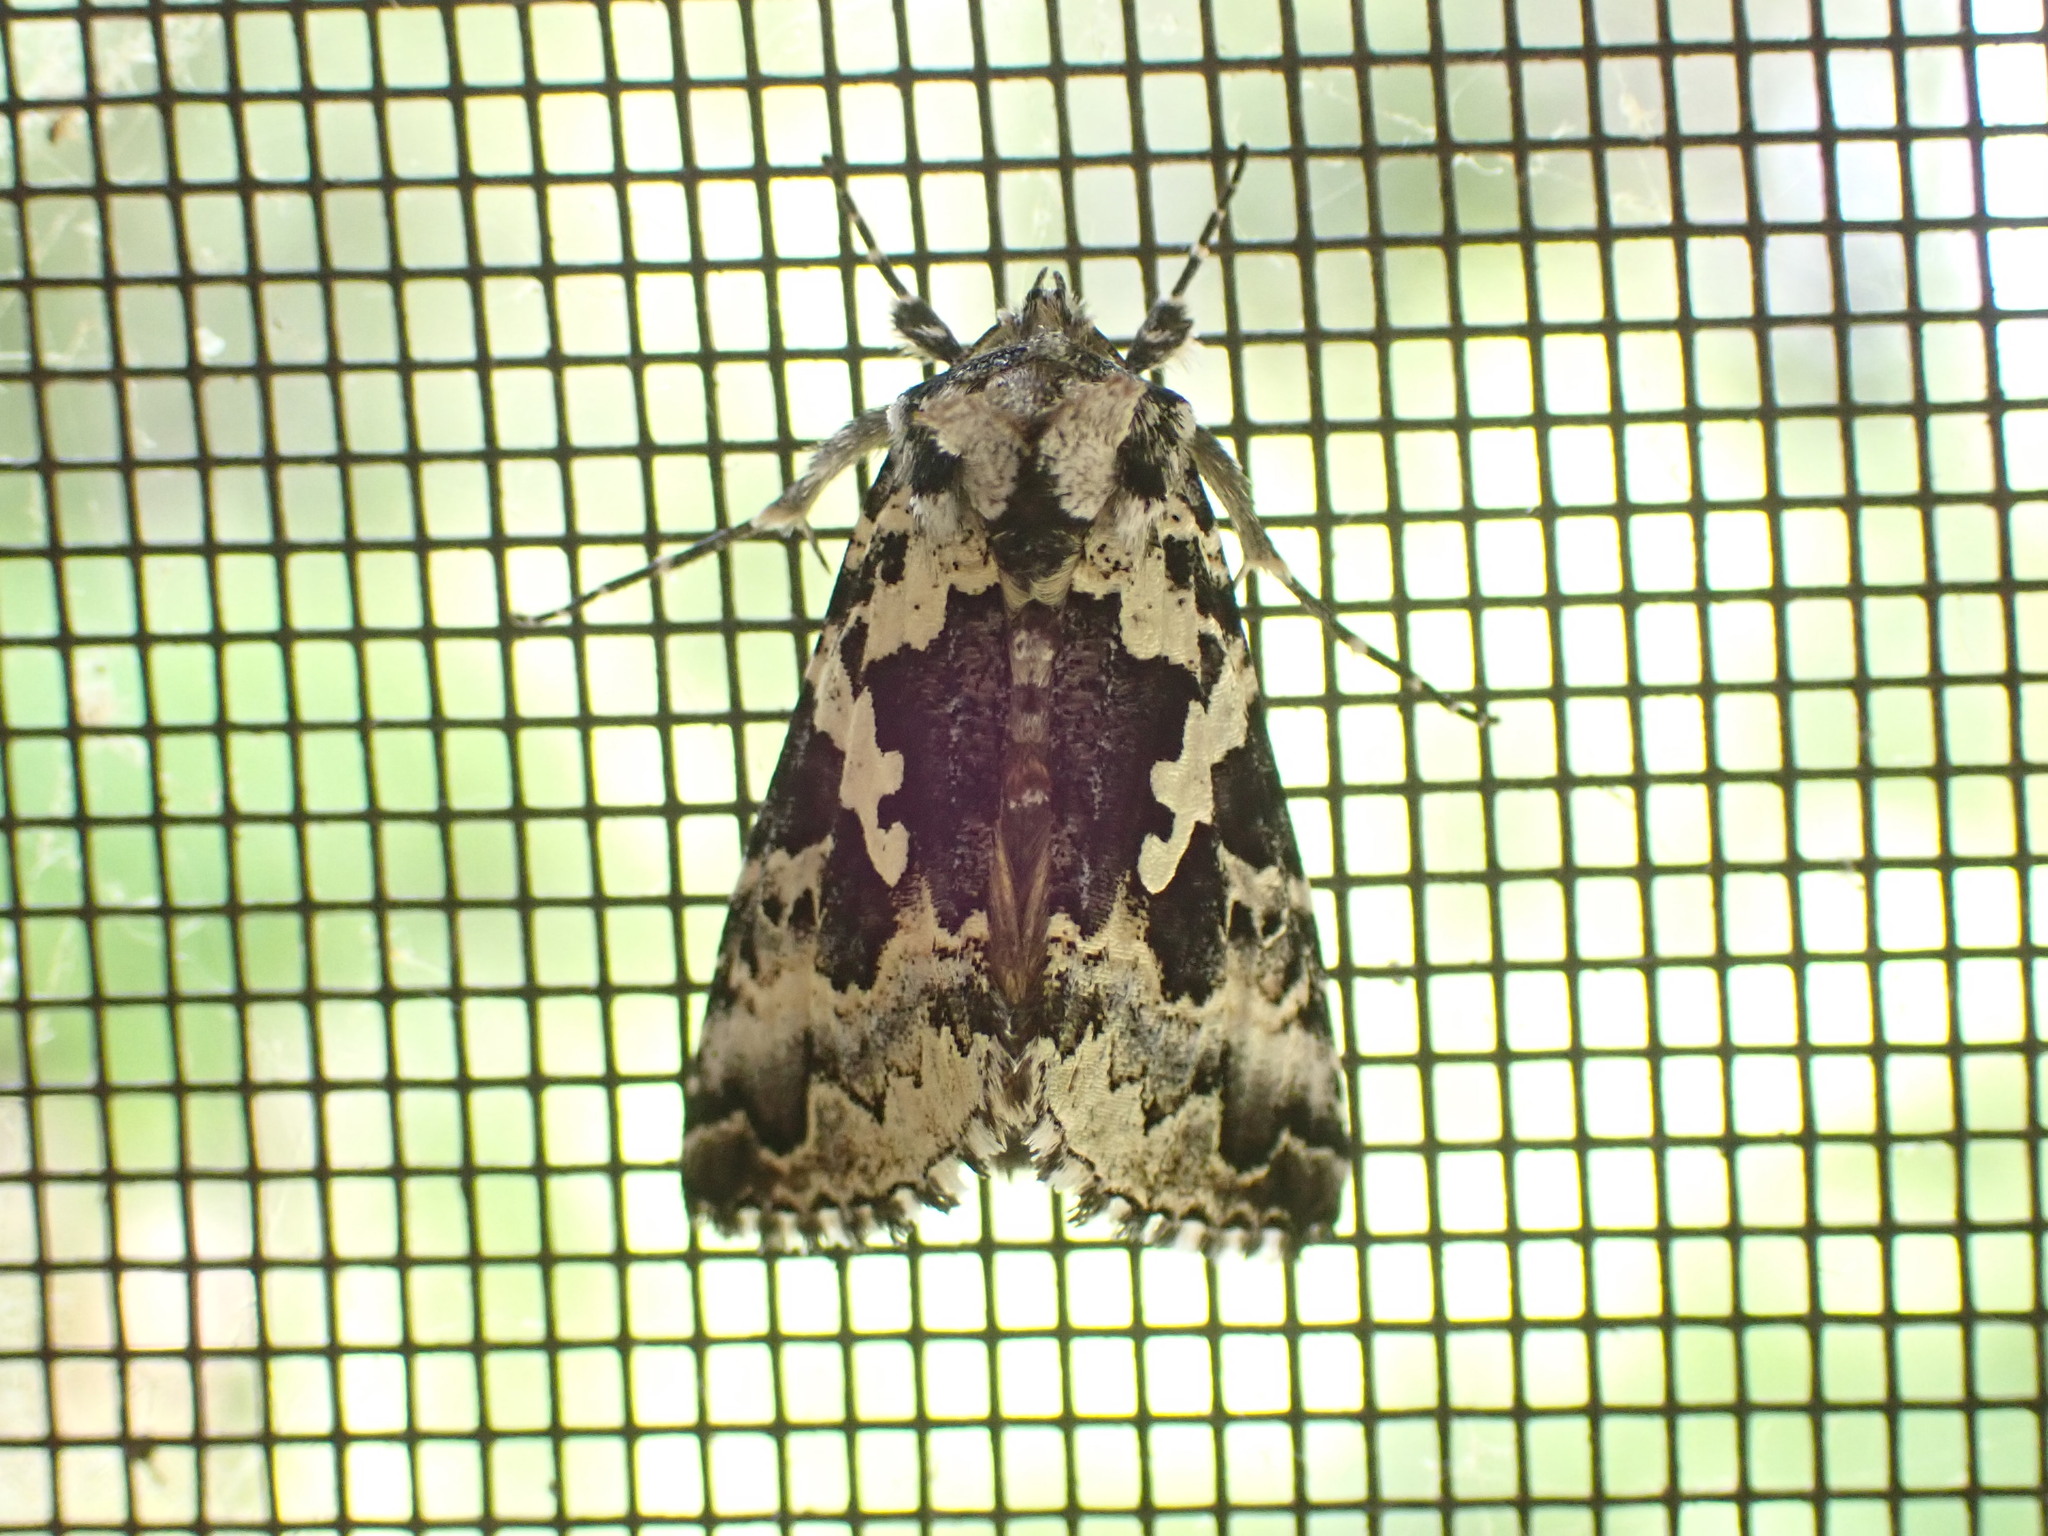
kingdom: Animalia
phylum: Arthropoda
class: Insecta
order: Lepidoptera
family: Noctuidae
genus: Syngrapha
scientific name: Syngrapha rectangula
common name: Angulated cutworm
